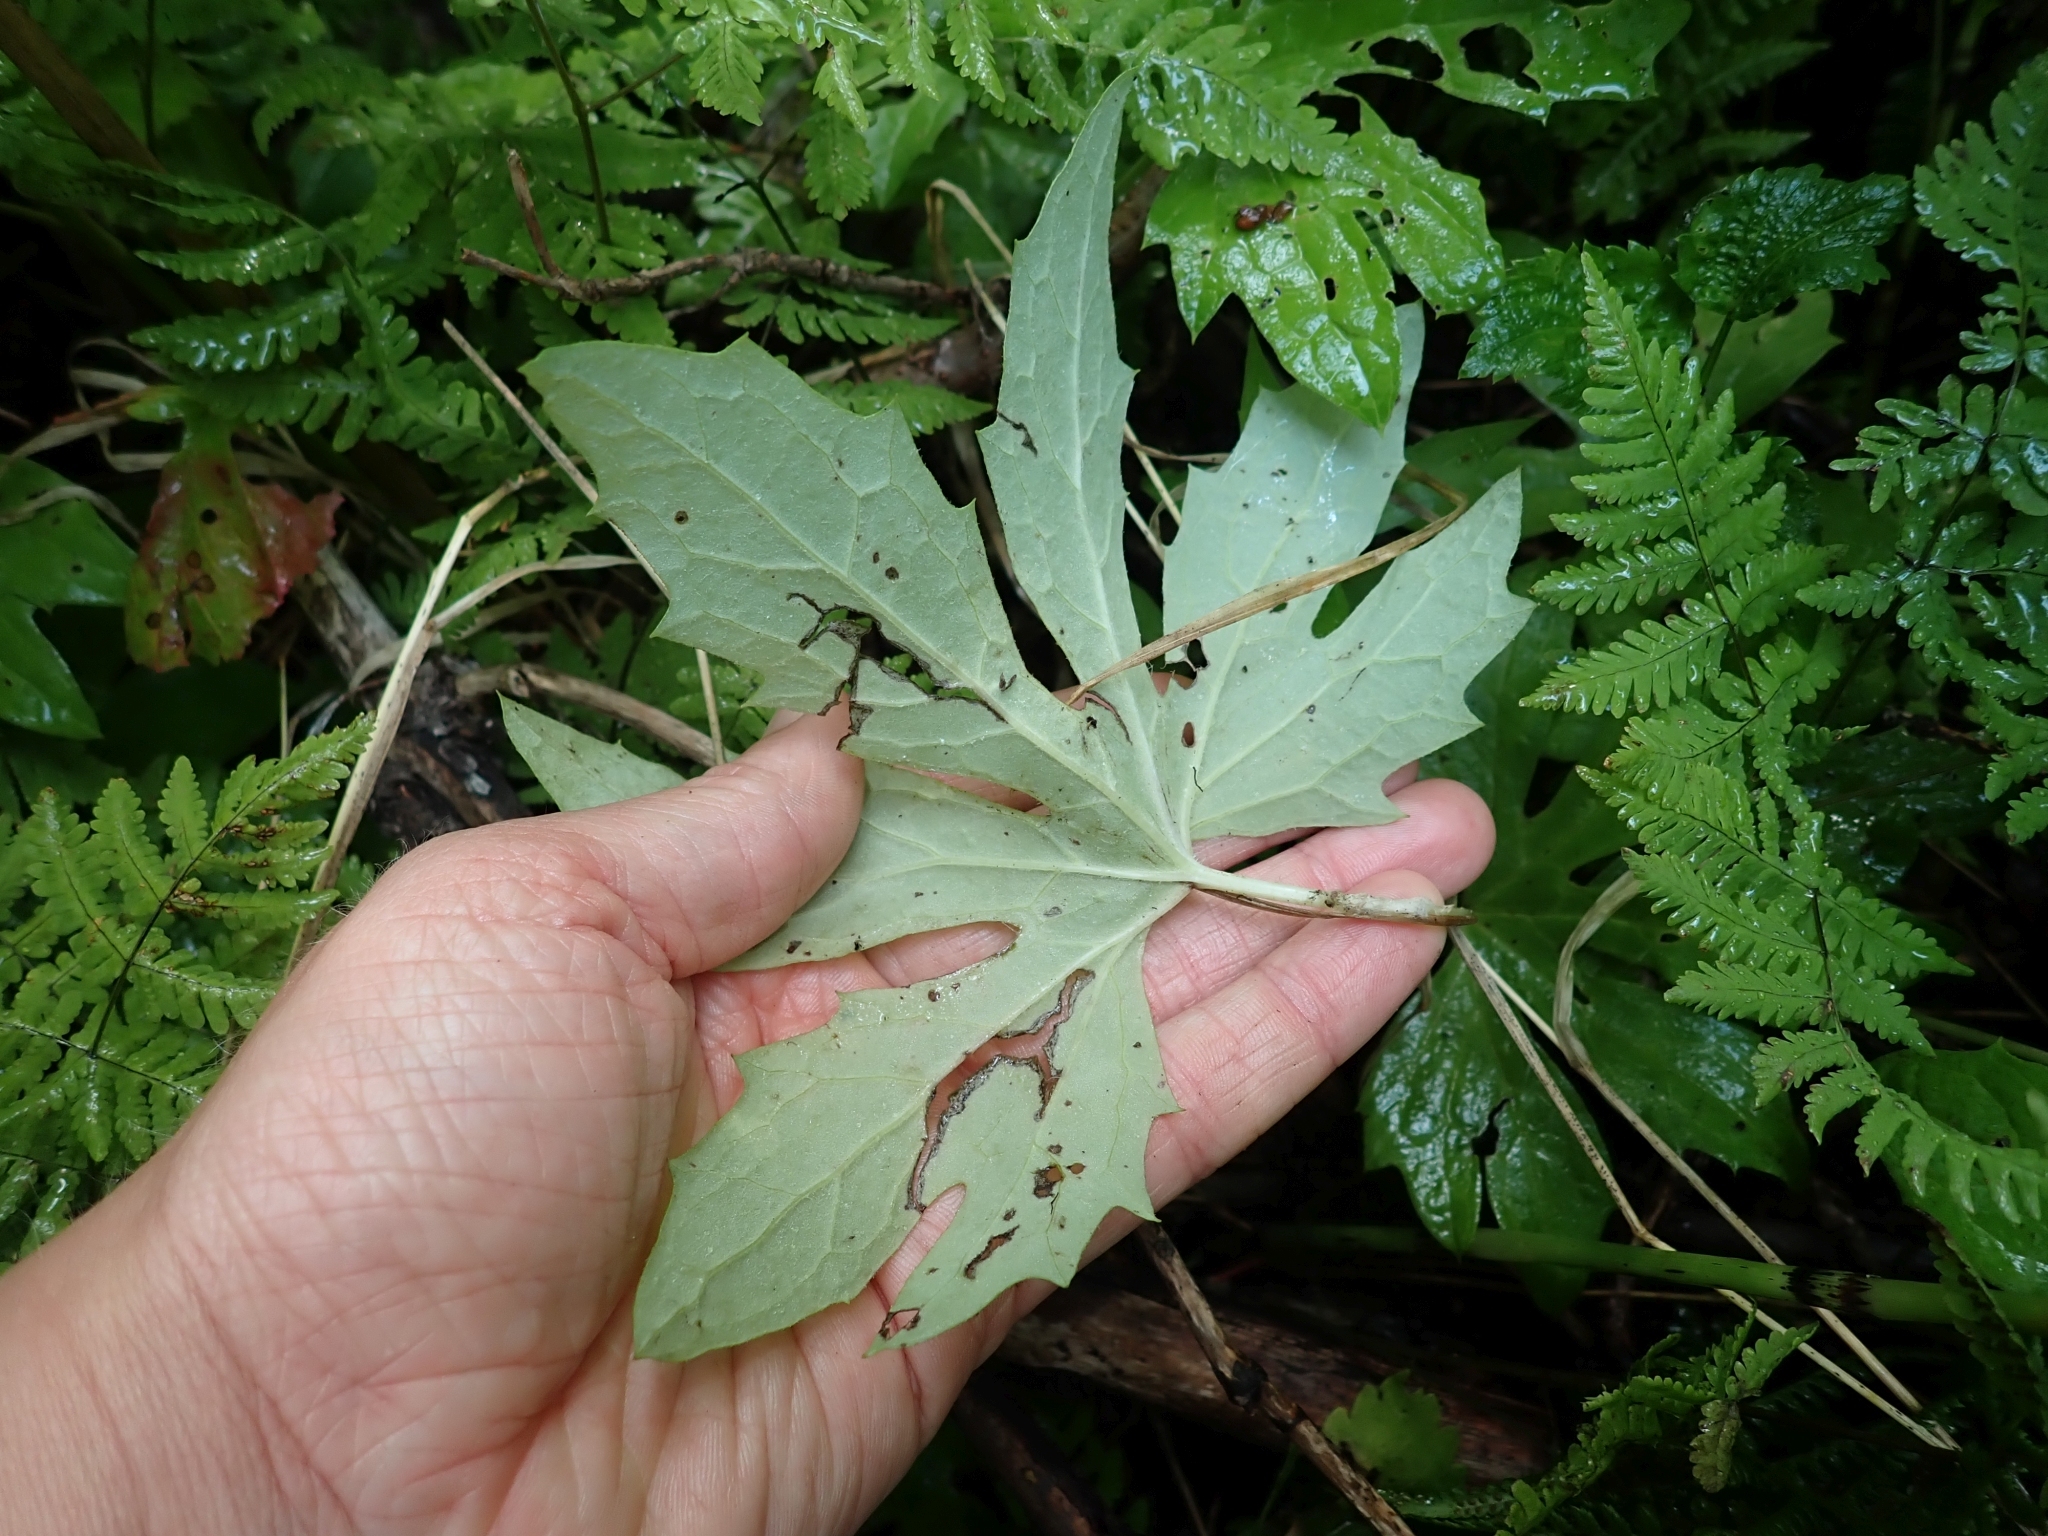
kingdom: Plantae
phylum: Tracheophyta
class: Magnoliopsida
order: Asterales
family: Asteraceae
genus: Petasites
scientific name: Petasites frigidus
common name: Arctic butterbur
